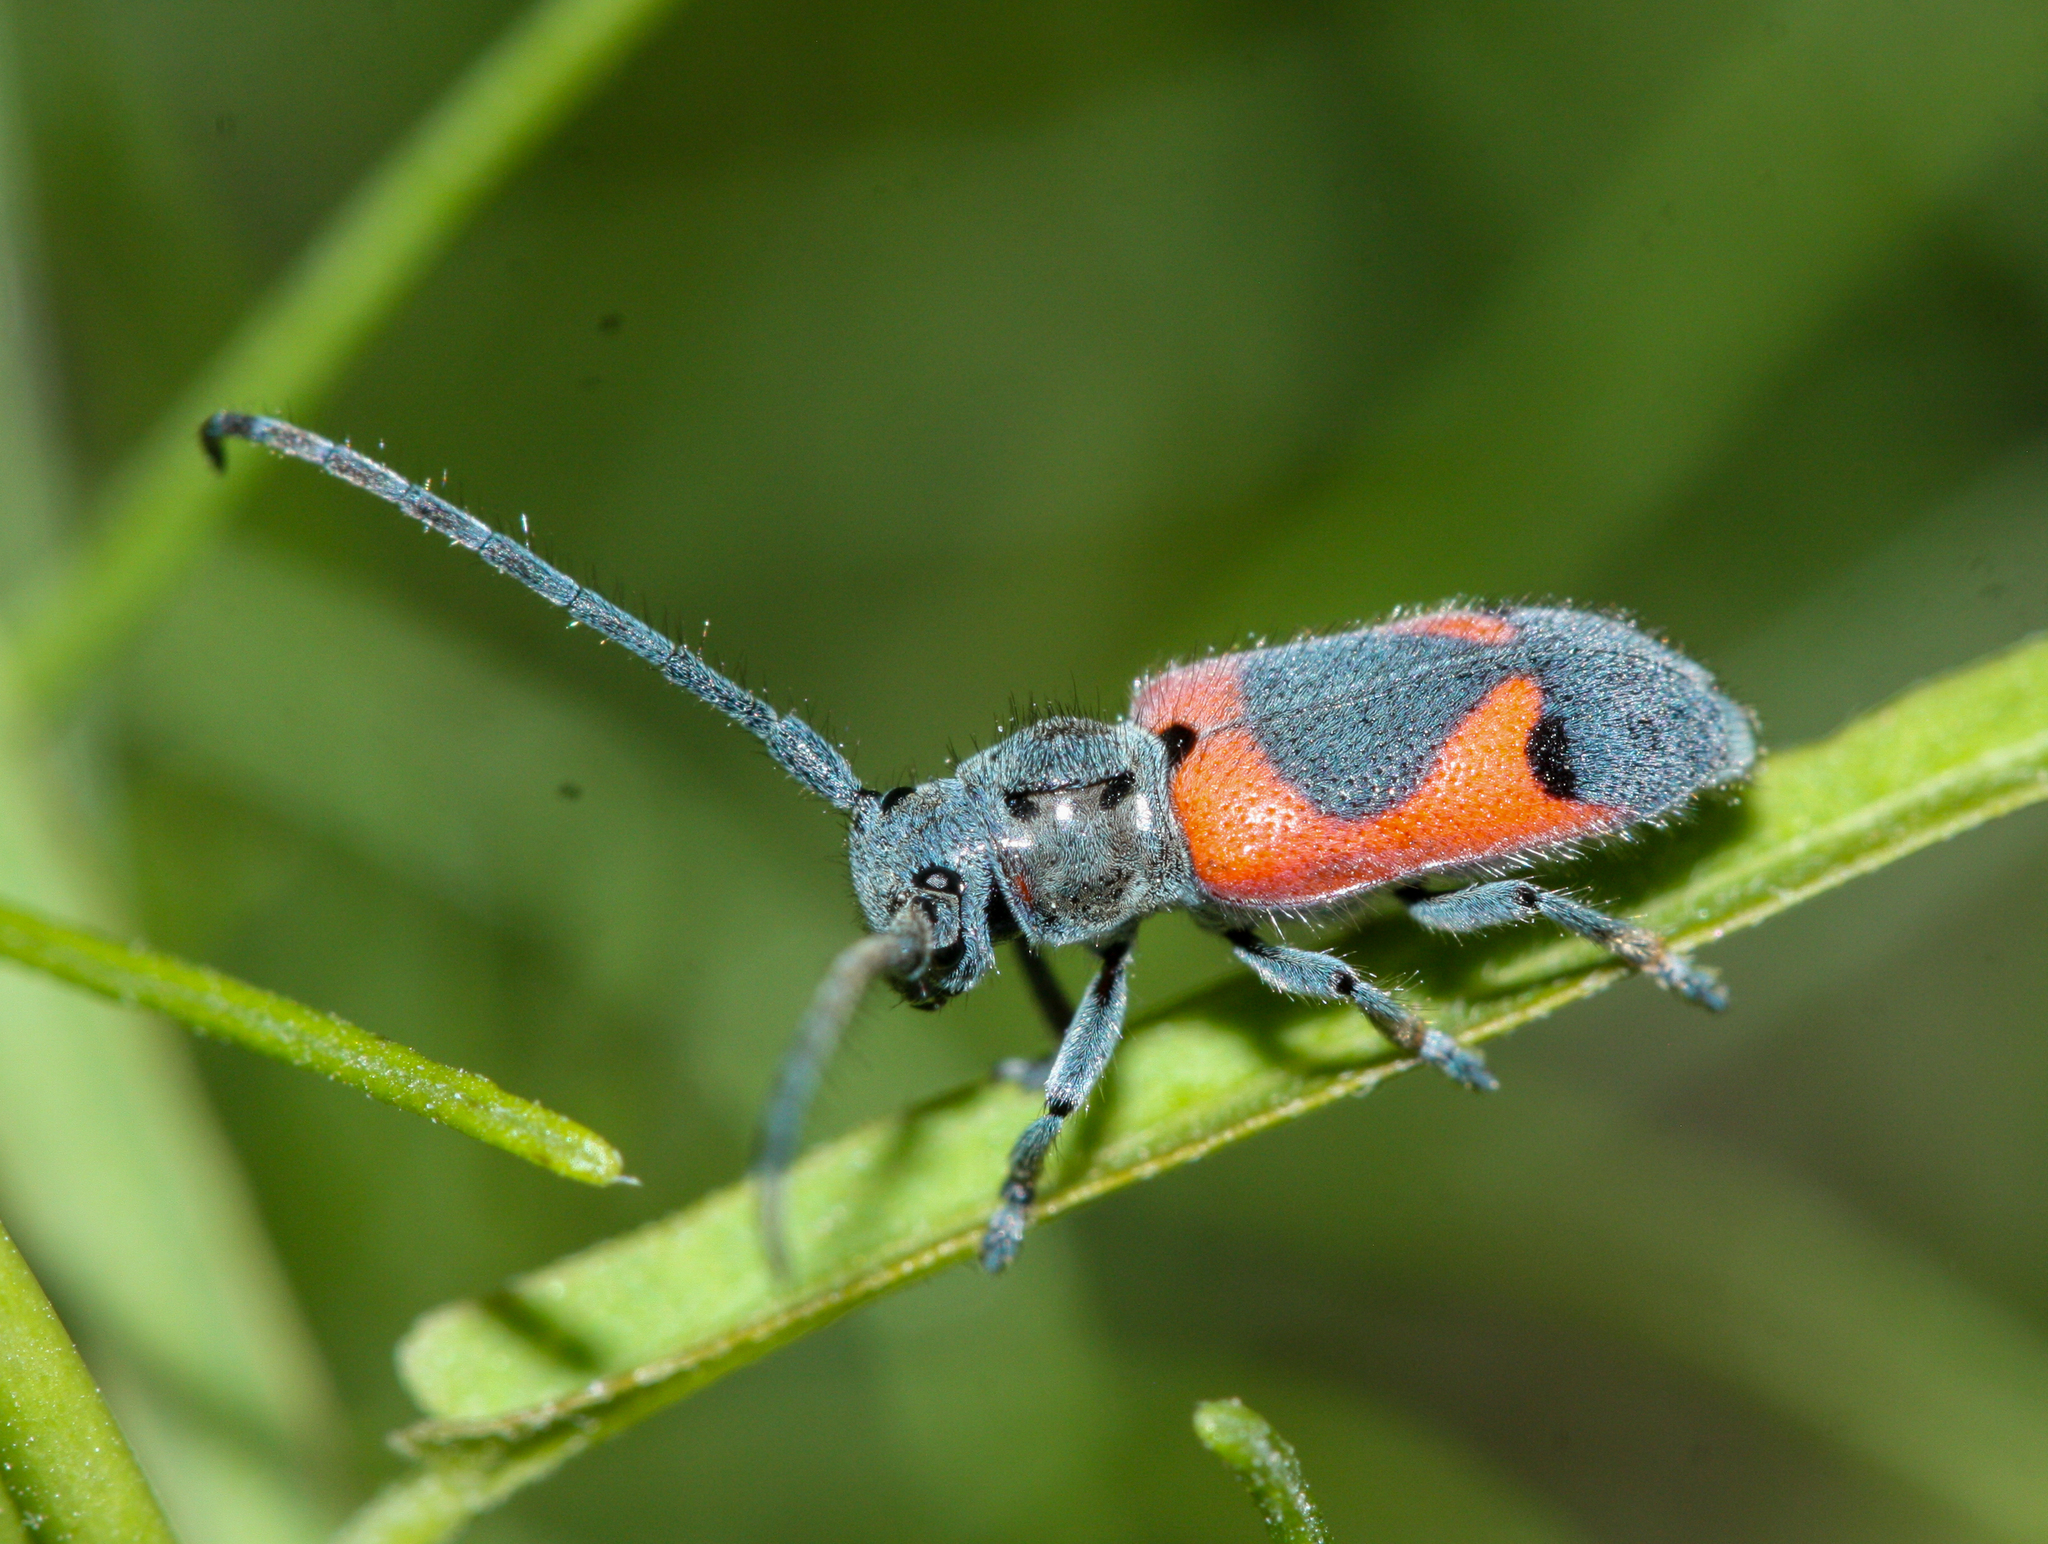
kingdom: Animalia
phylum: Arthropoda
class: Insecta
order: Coleoptera
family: Cerambycidae
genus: Tetraopes
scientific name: Tetraopes discoideus
